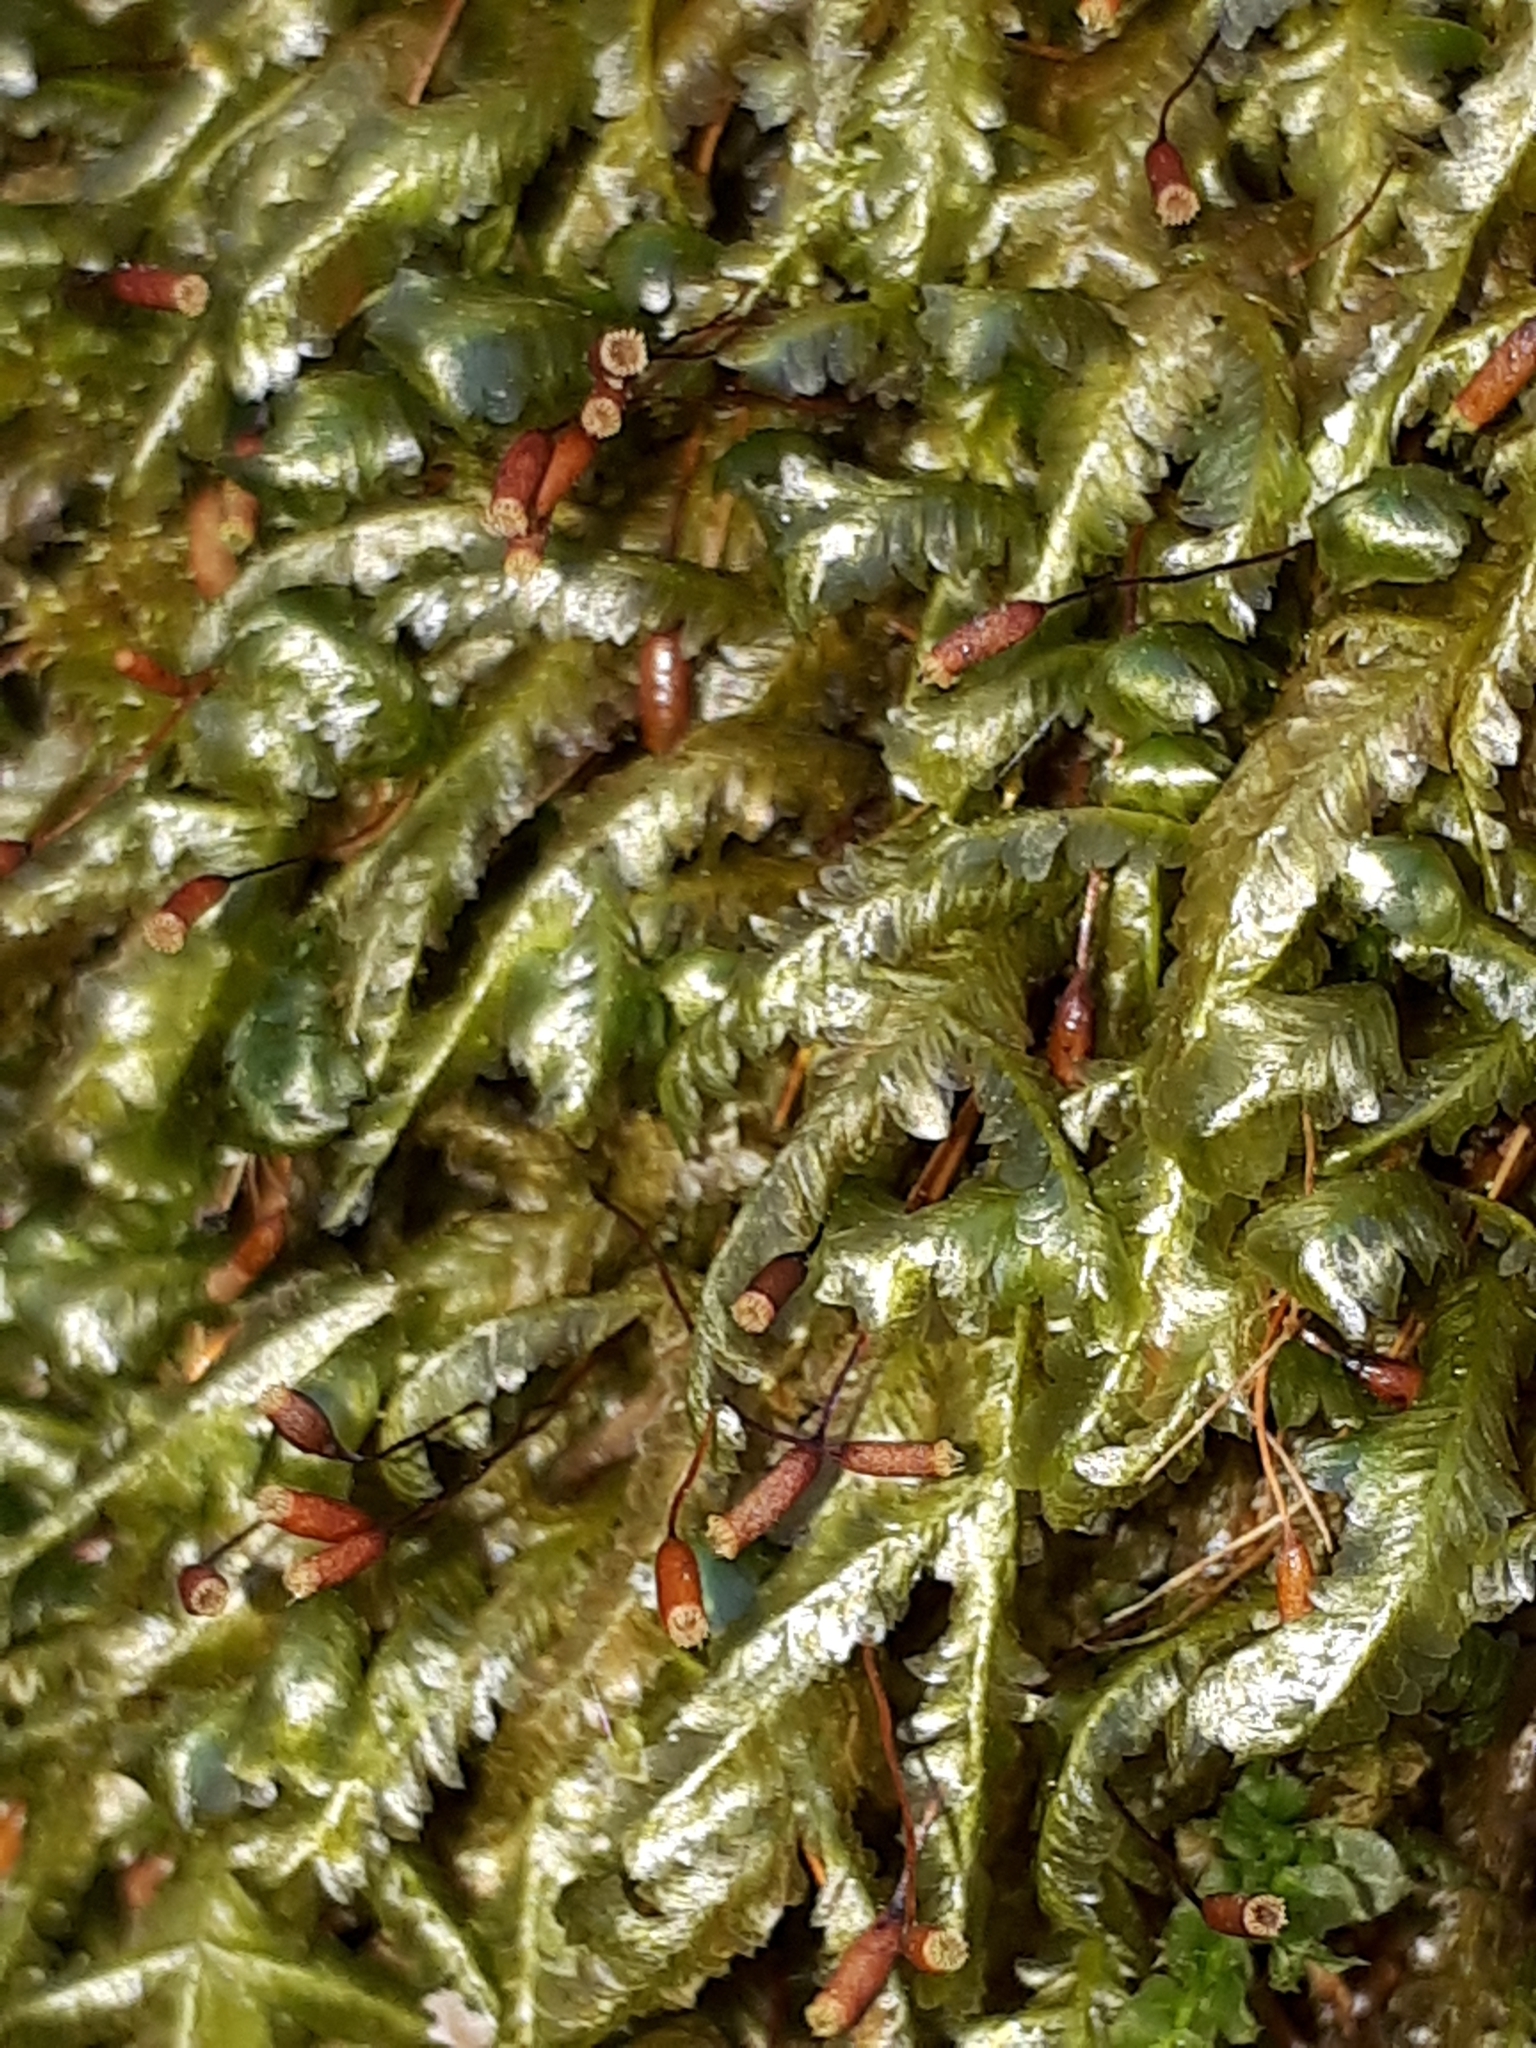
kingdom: Plantae
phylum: Bryophyta
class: Bryopsida
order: Hypnales
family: Neckeraceae
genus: Homalia
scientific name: Homalia trichomanoides
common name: Lime homalia moss
